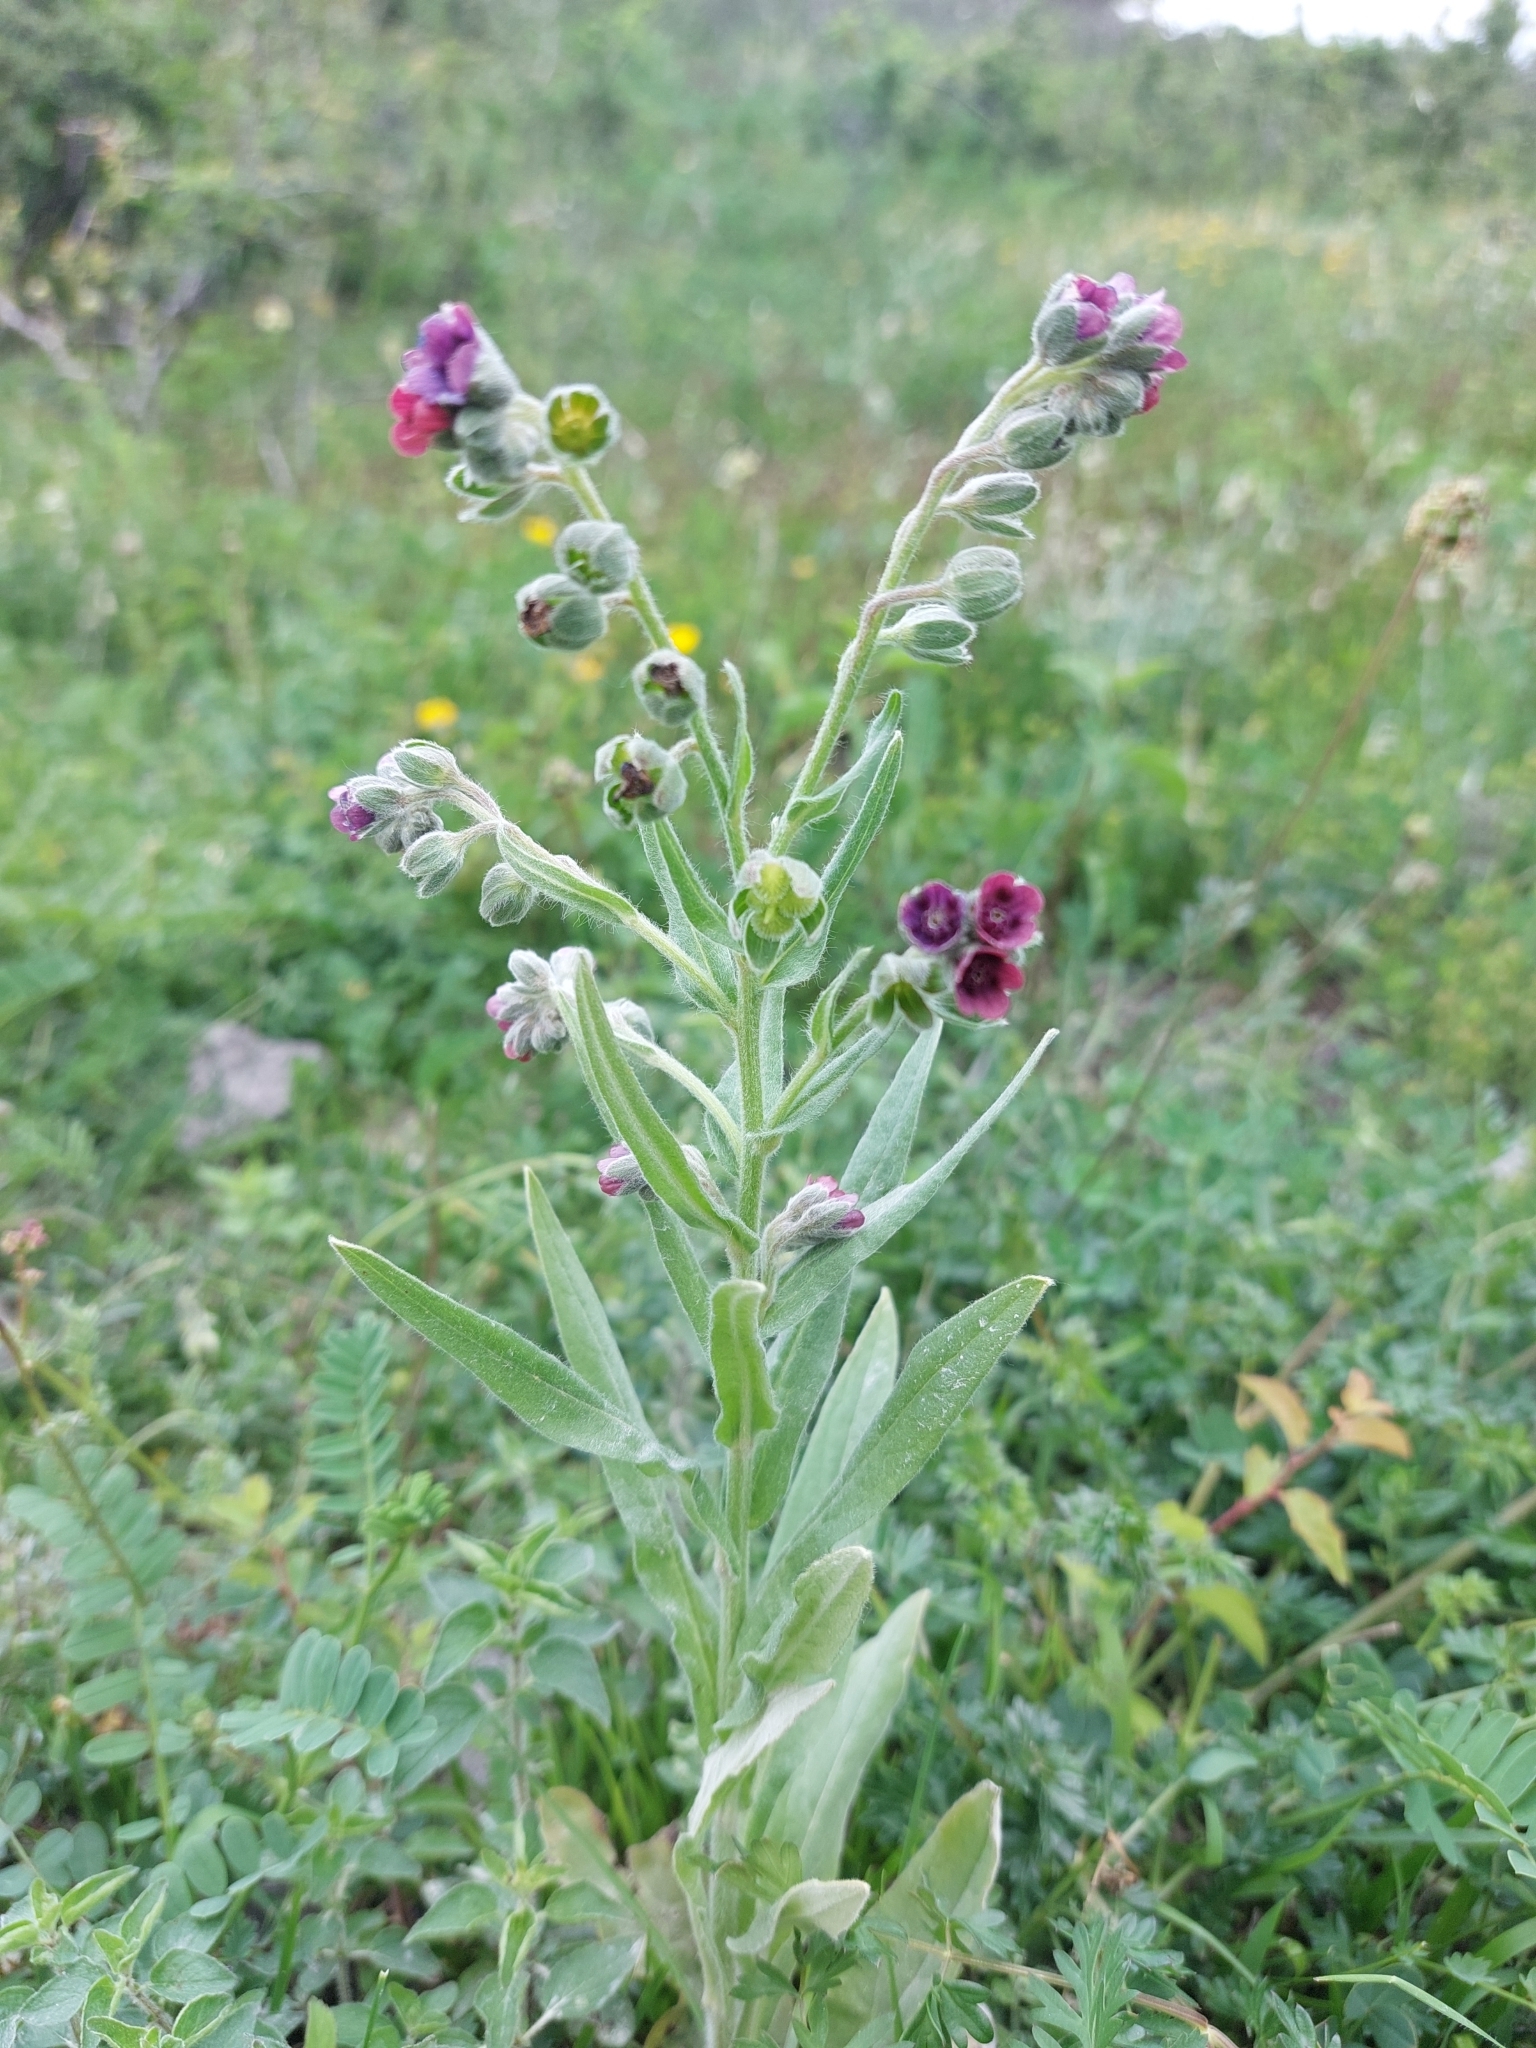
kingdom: Plantae
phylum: Tracheophyta
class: Magnoliopsida
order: Boraginales
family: Boraginaceae
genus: Cynoglossum
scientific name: Cynoglossum officinale
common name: Hound's-tongue
